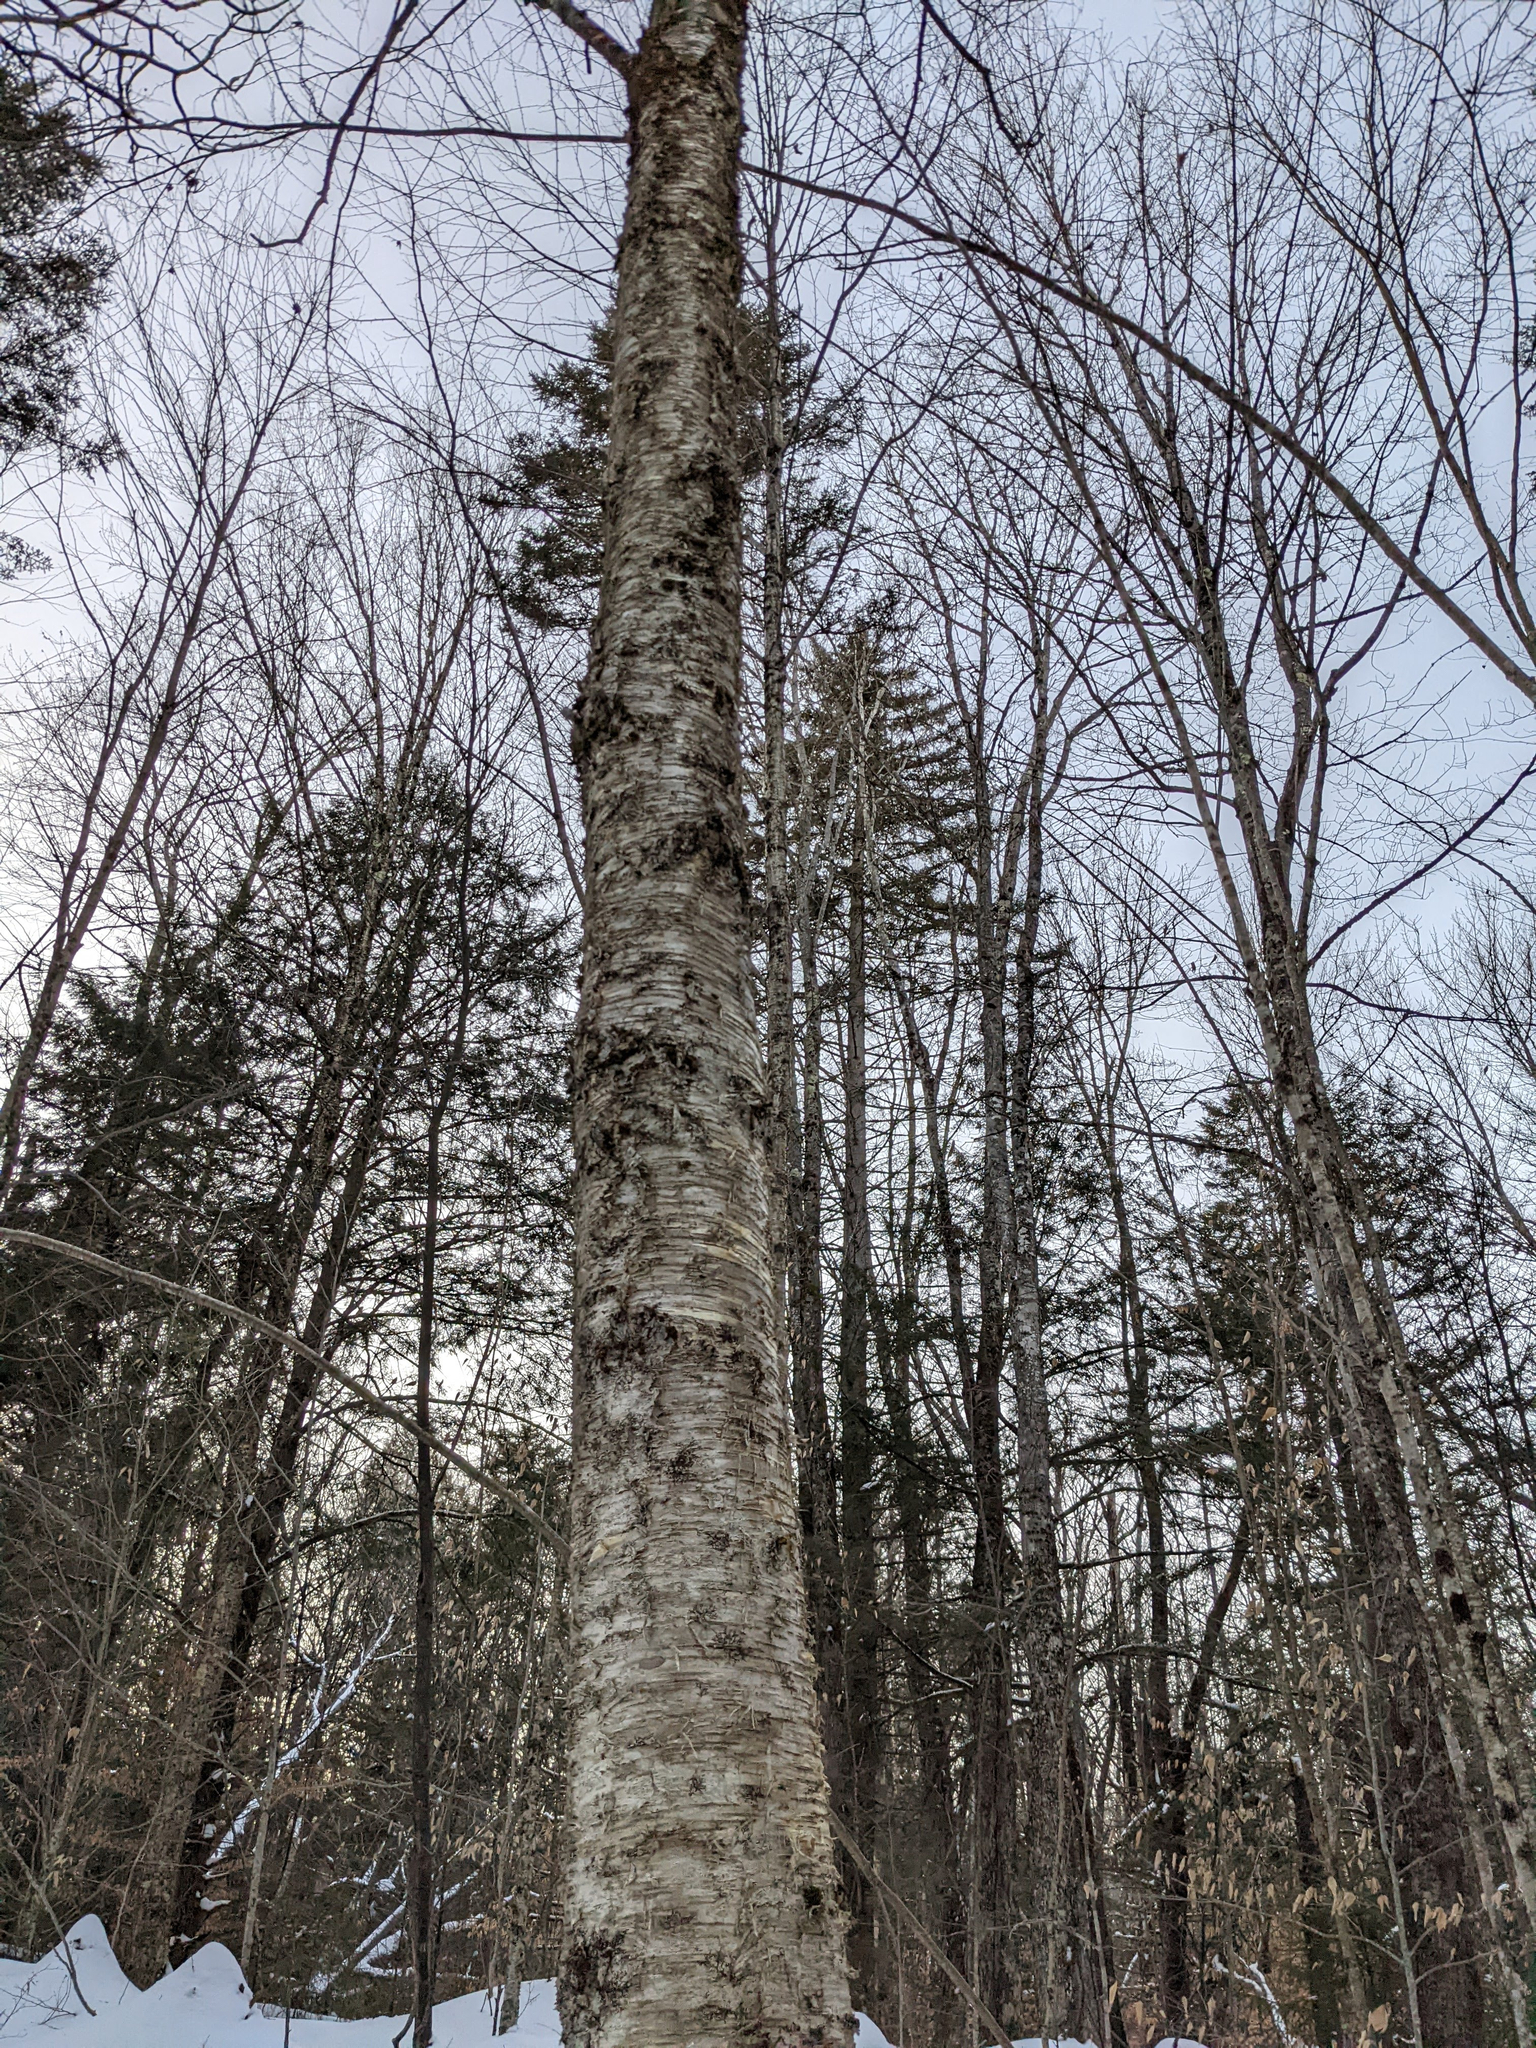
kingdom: Plantae
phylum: Tracheophyta
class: Magnoliopsida
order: Fagales
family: Betulaceae
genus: Betula
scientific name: Betula alleghaniensis
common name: Yellow birch
